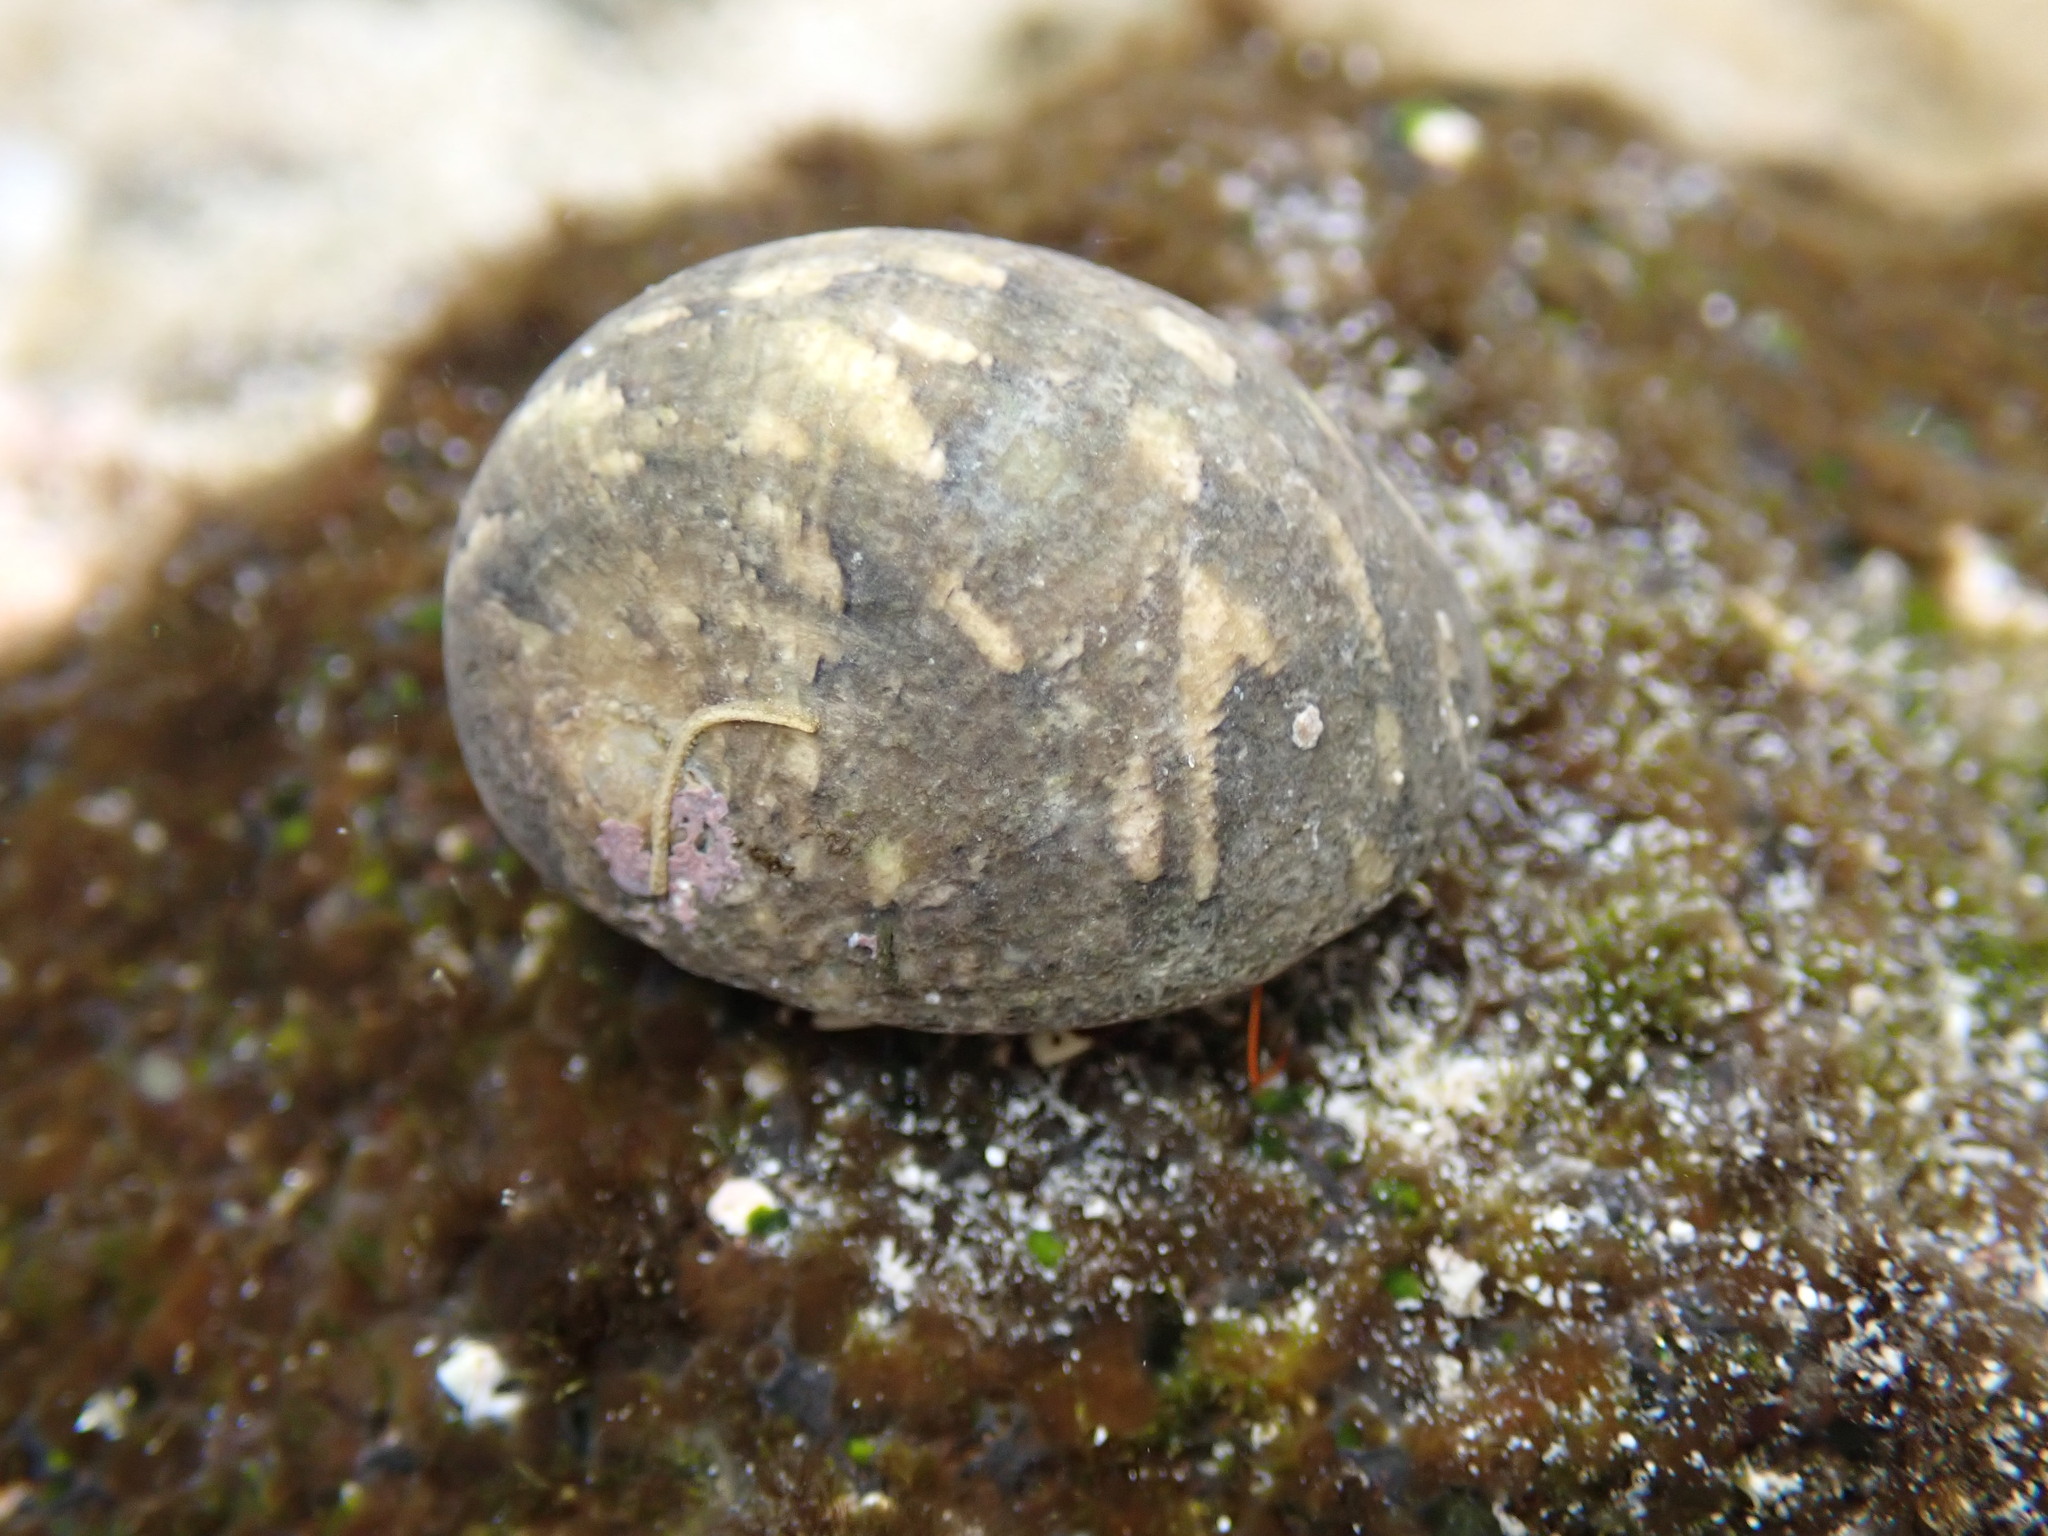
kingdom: Animalia
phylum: Mollusca
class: Gastropoda
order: Cycloneritida
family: Neritidae
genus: Nerita
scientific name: Nerita polita
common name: Polished nerite
